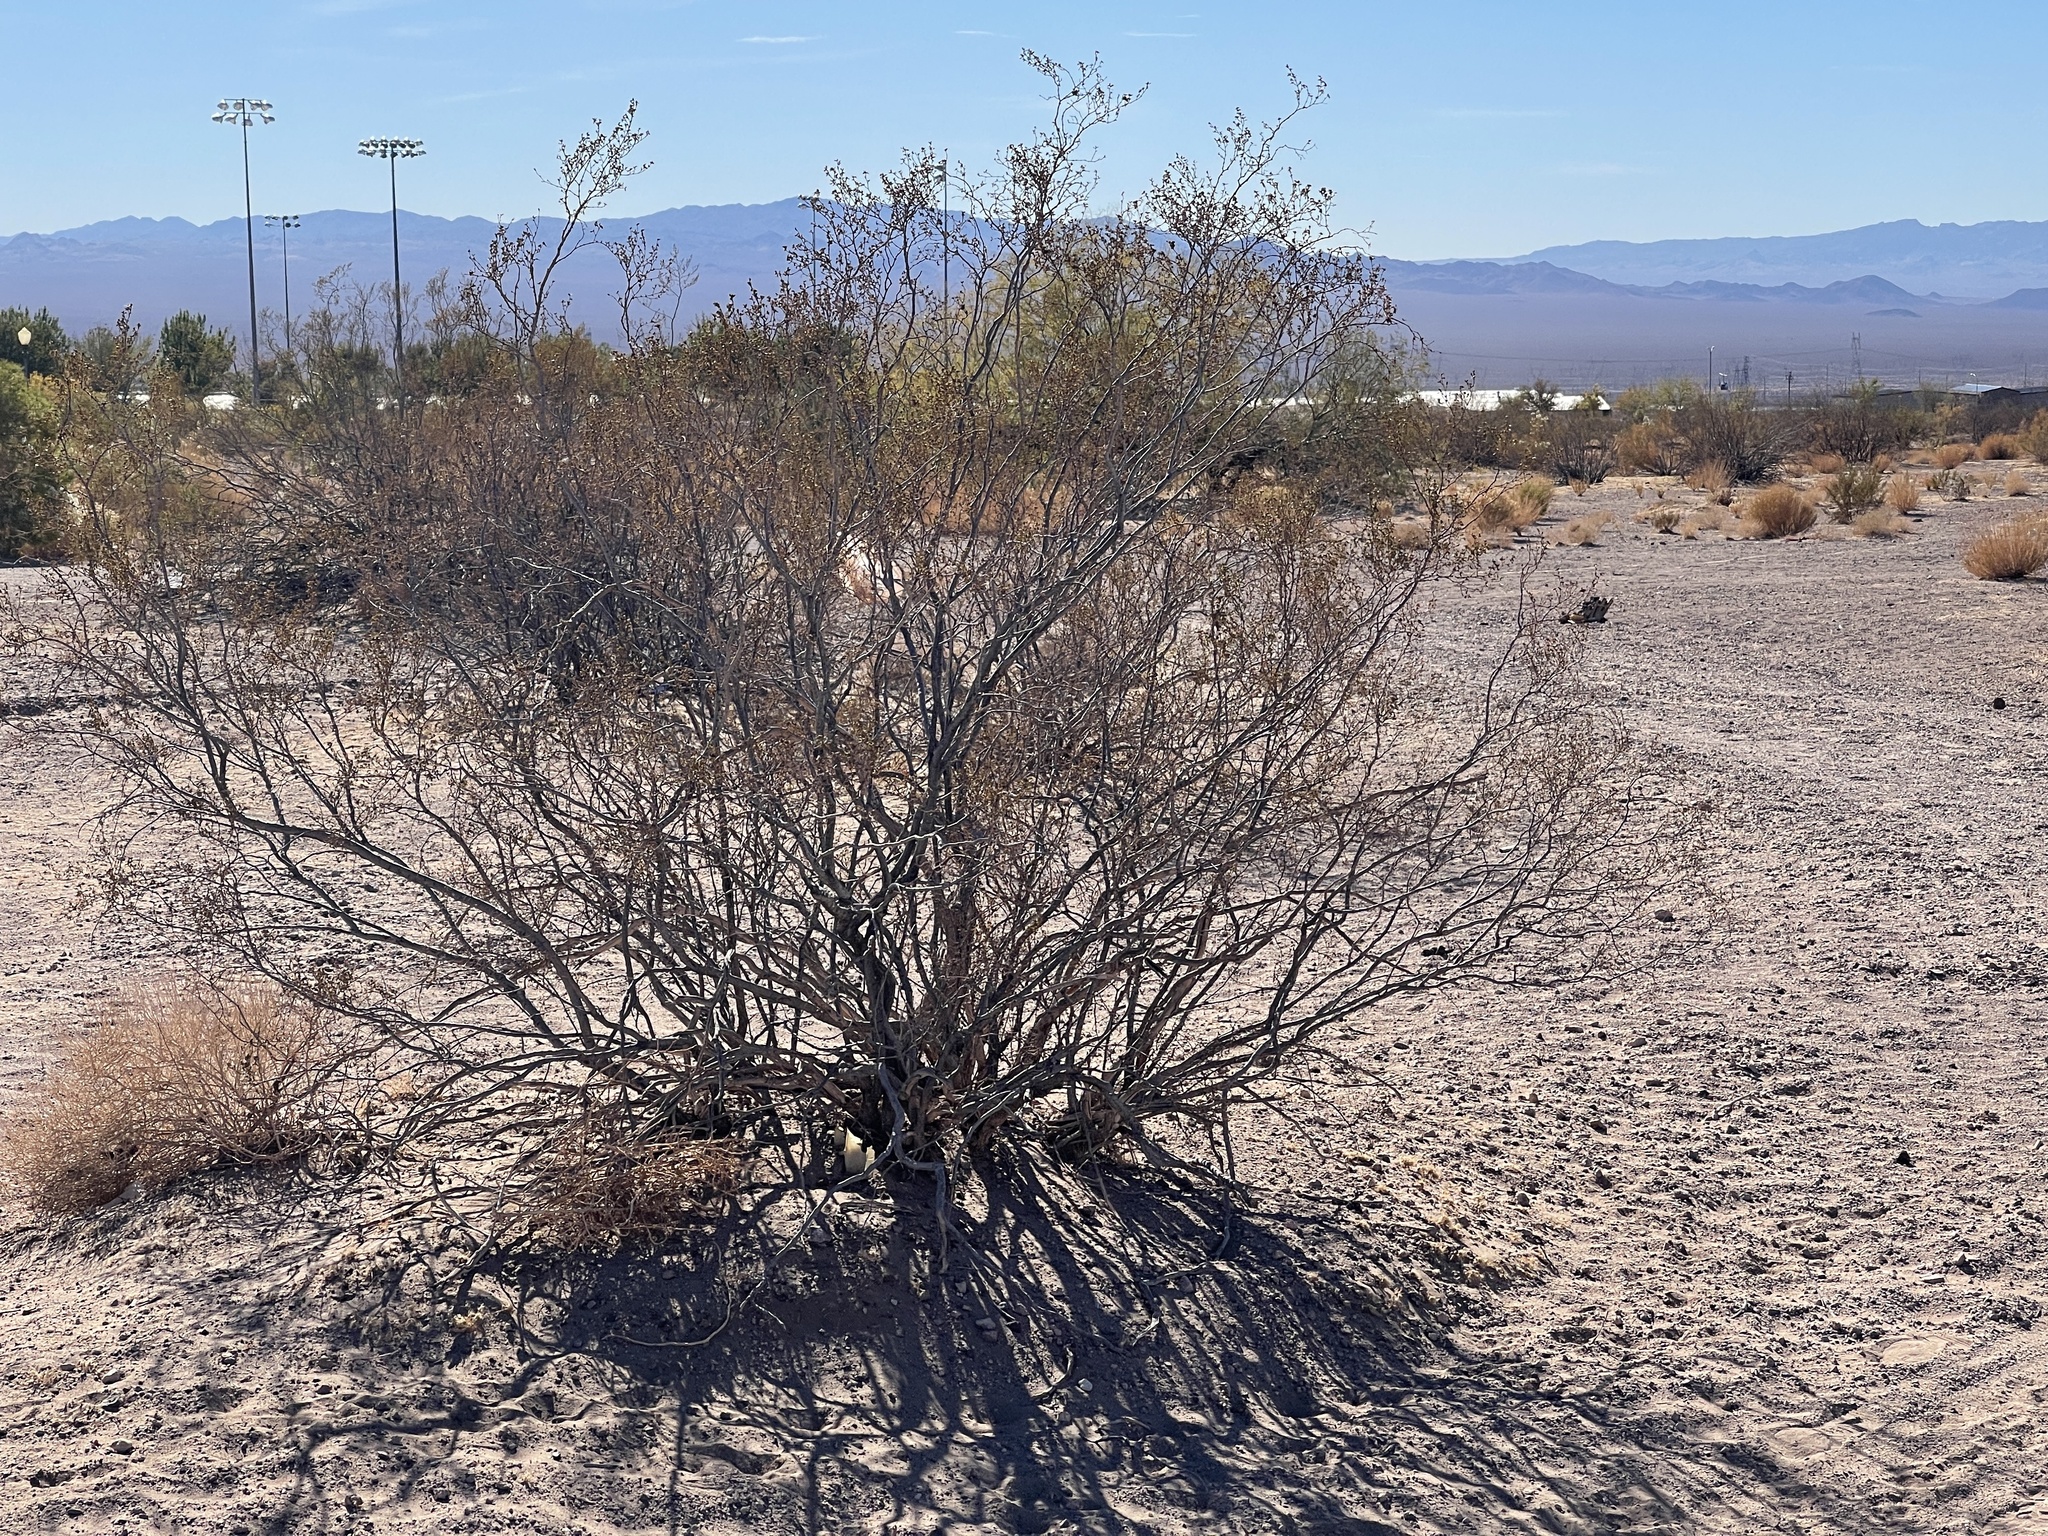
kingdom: Plantae
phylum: Tracheophyta
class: Magnoliopsida
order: Zygophyllales
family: Zygophyllaceae
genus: Larrea
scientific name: Larrea tridentata
